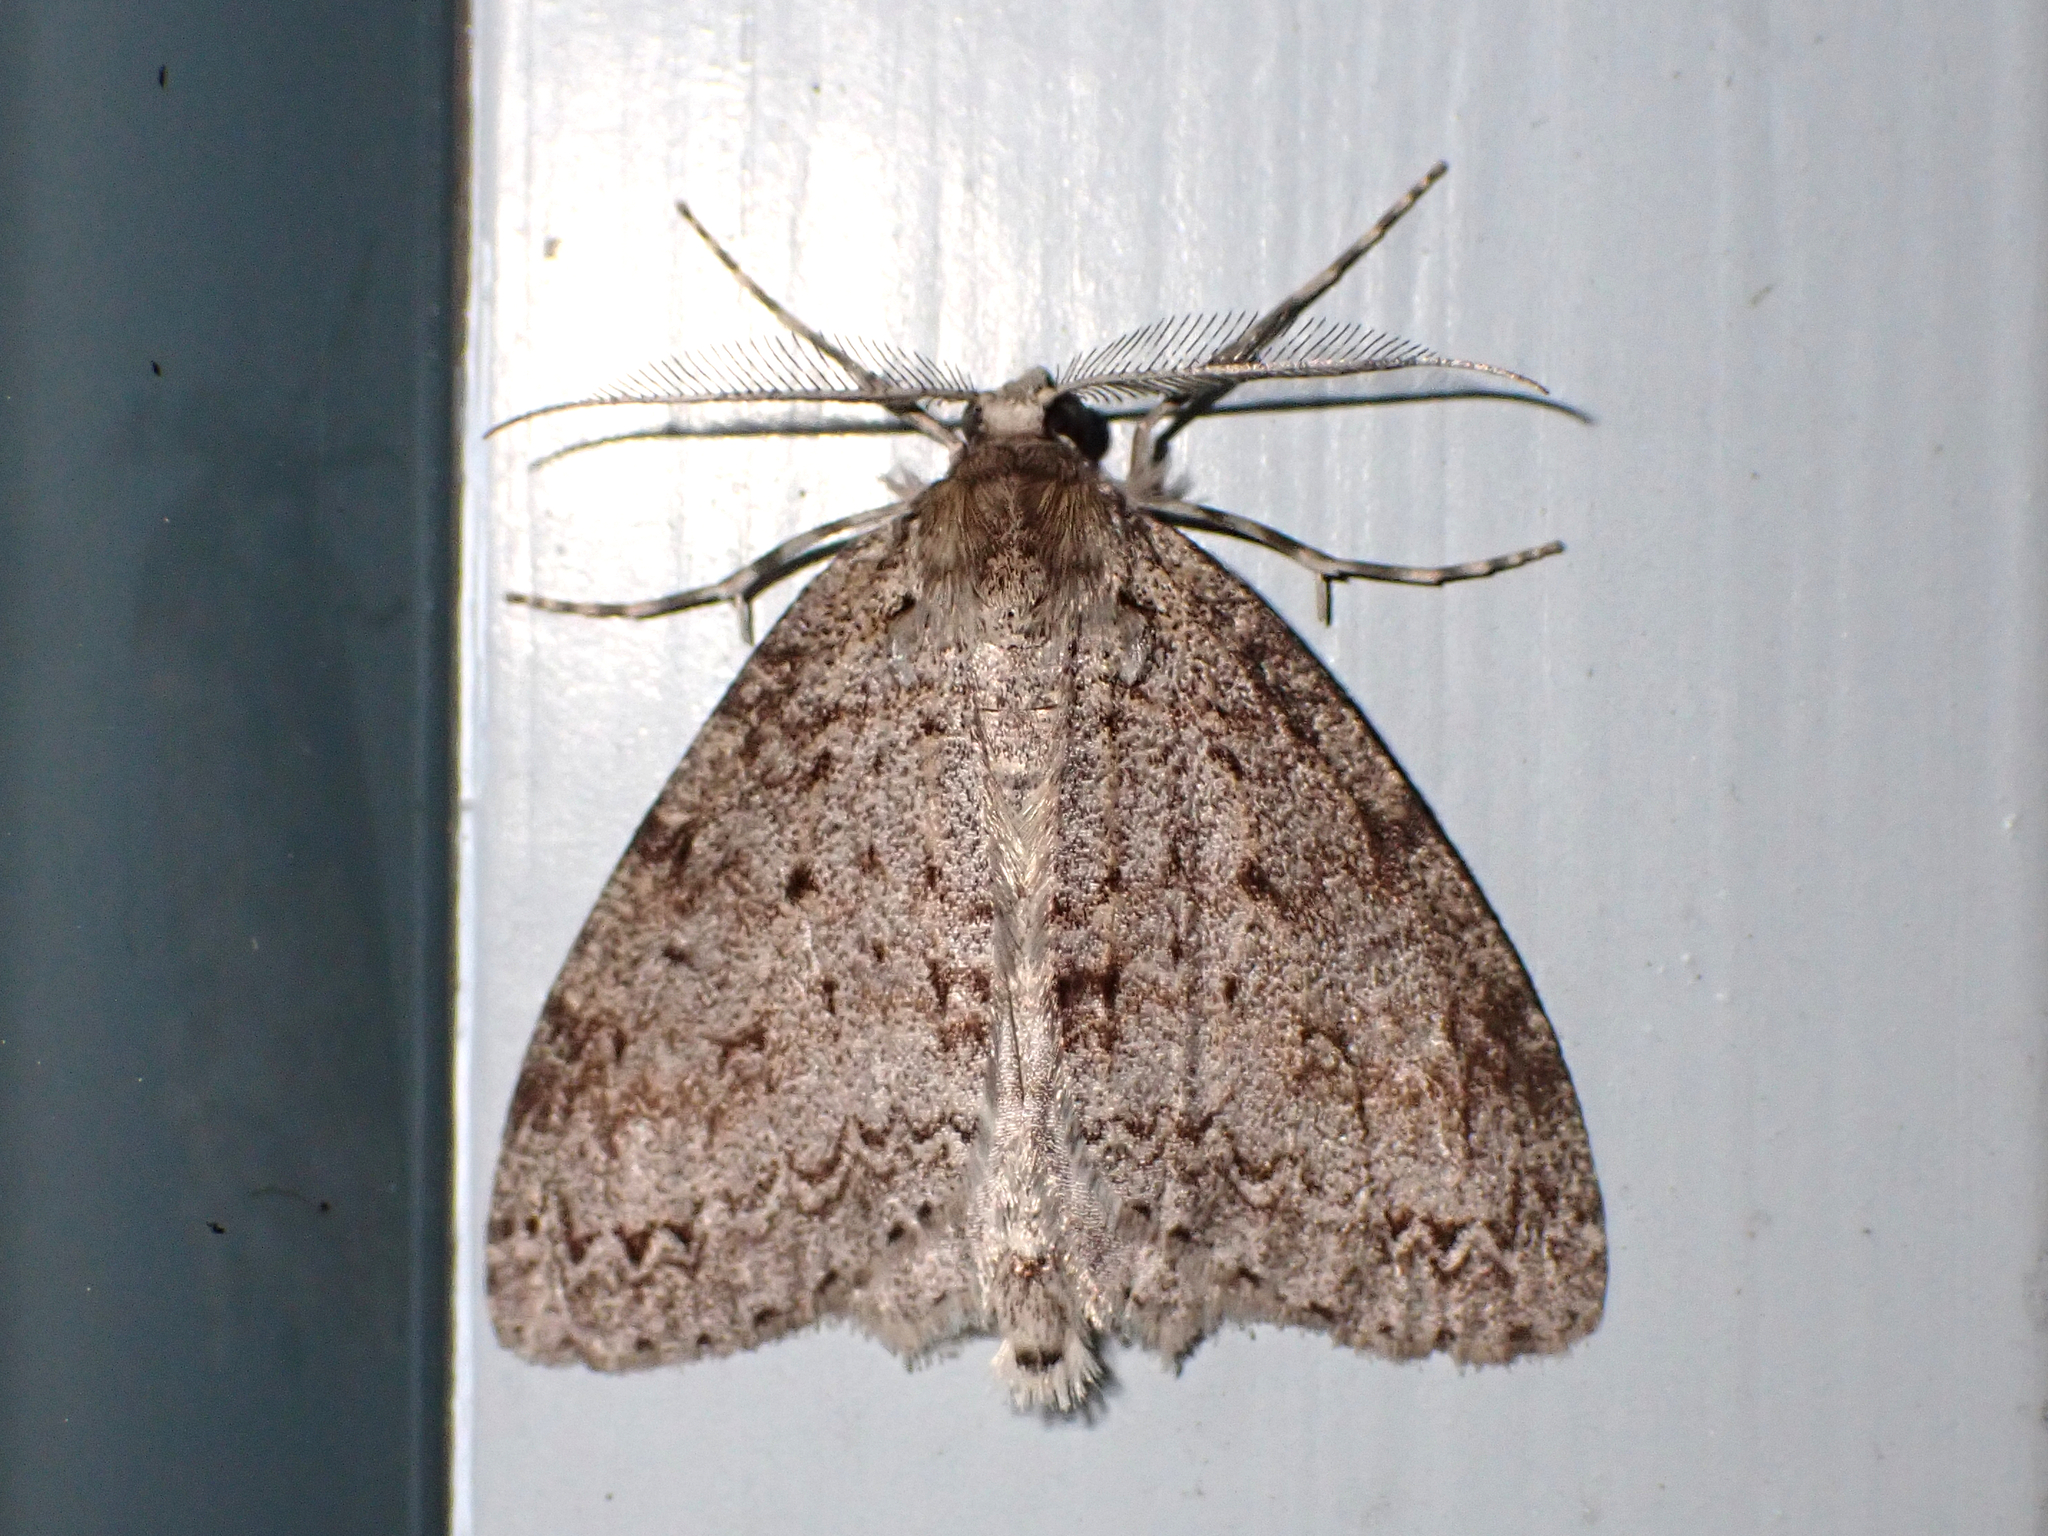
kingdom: Animalia
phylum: Arthropoda
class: Insecta
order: Lepidoptera
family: Geometridae
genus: Pseudocoremia
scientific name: Pseudocoremia fenerata
